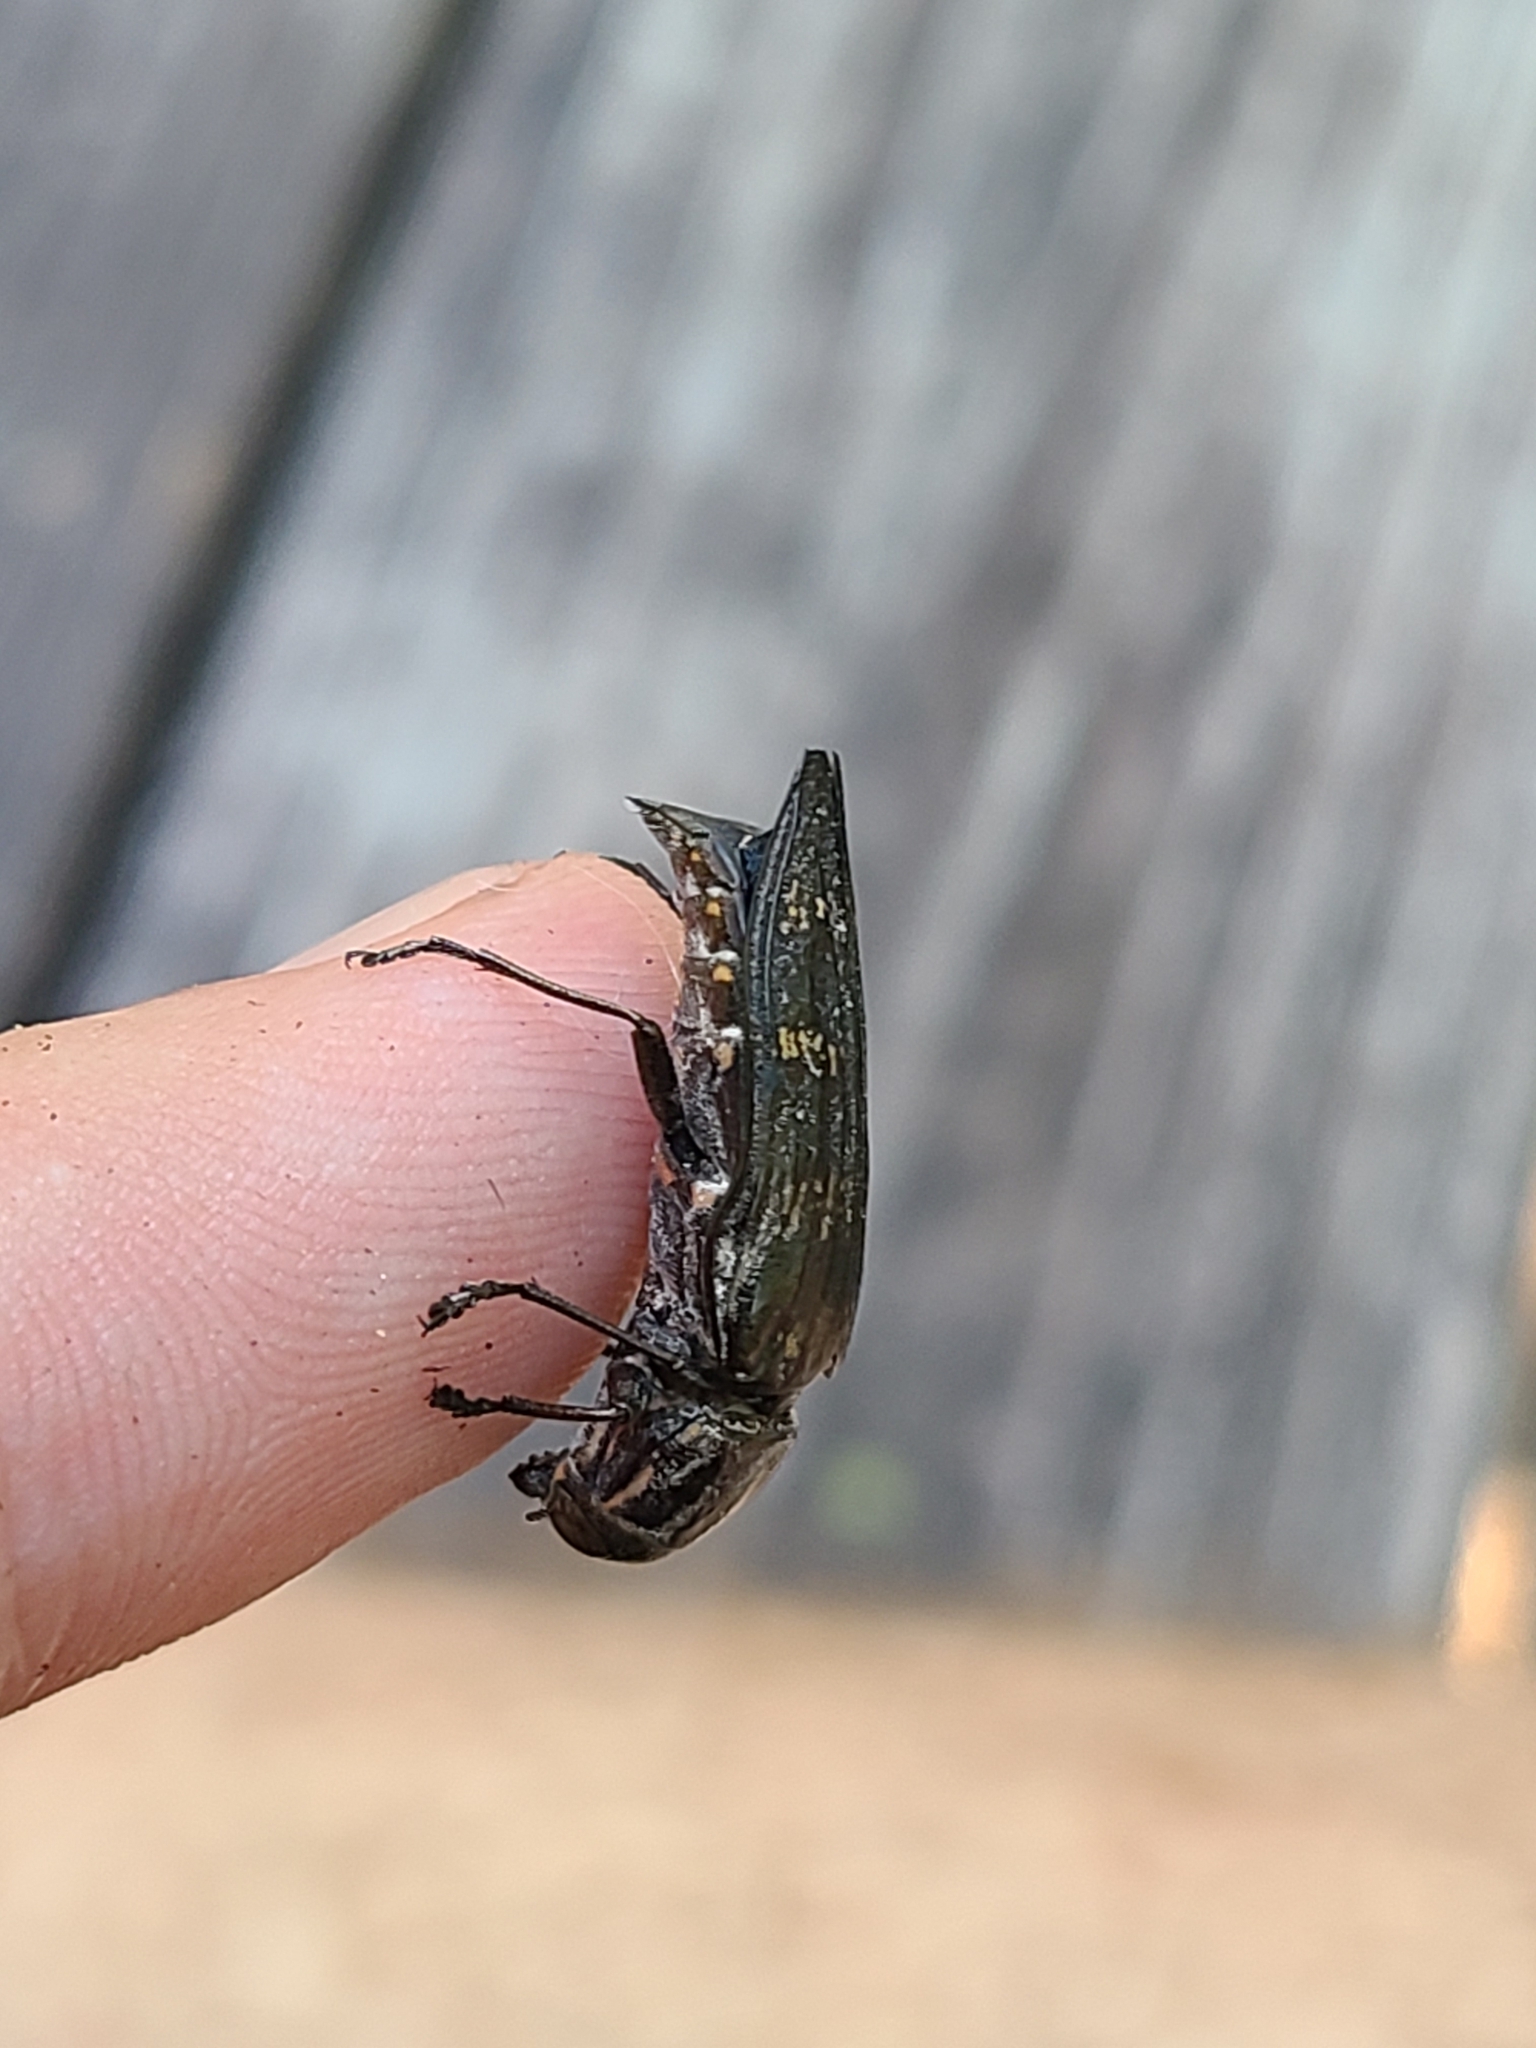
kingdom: Animalia
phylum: Arthropoda
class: Insecta
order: Coleoptera
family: Buprestidae
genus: Buprestis
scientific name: Buprestis consularis
